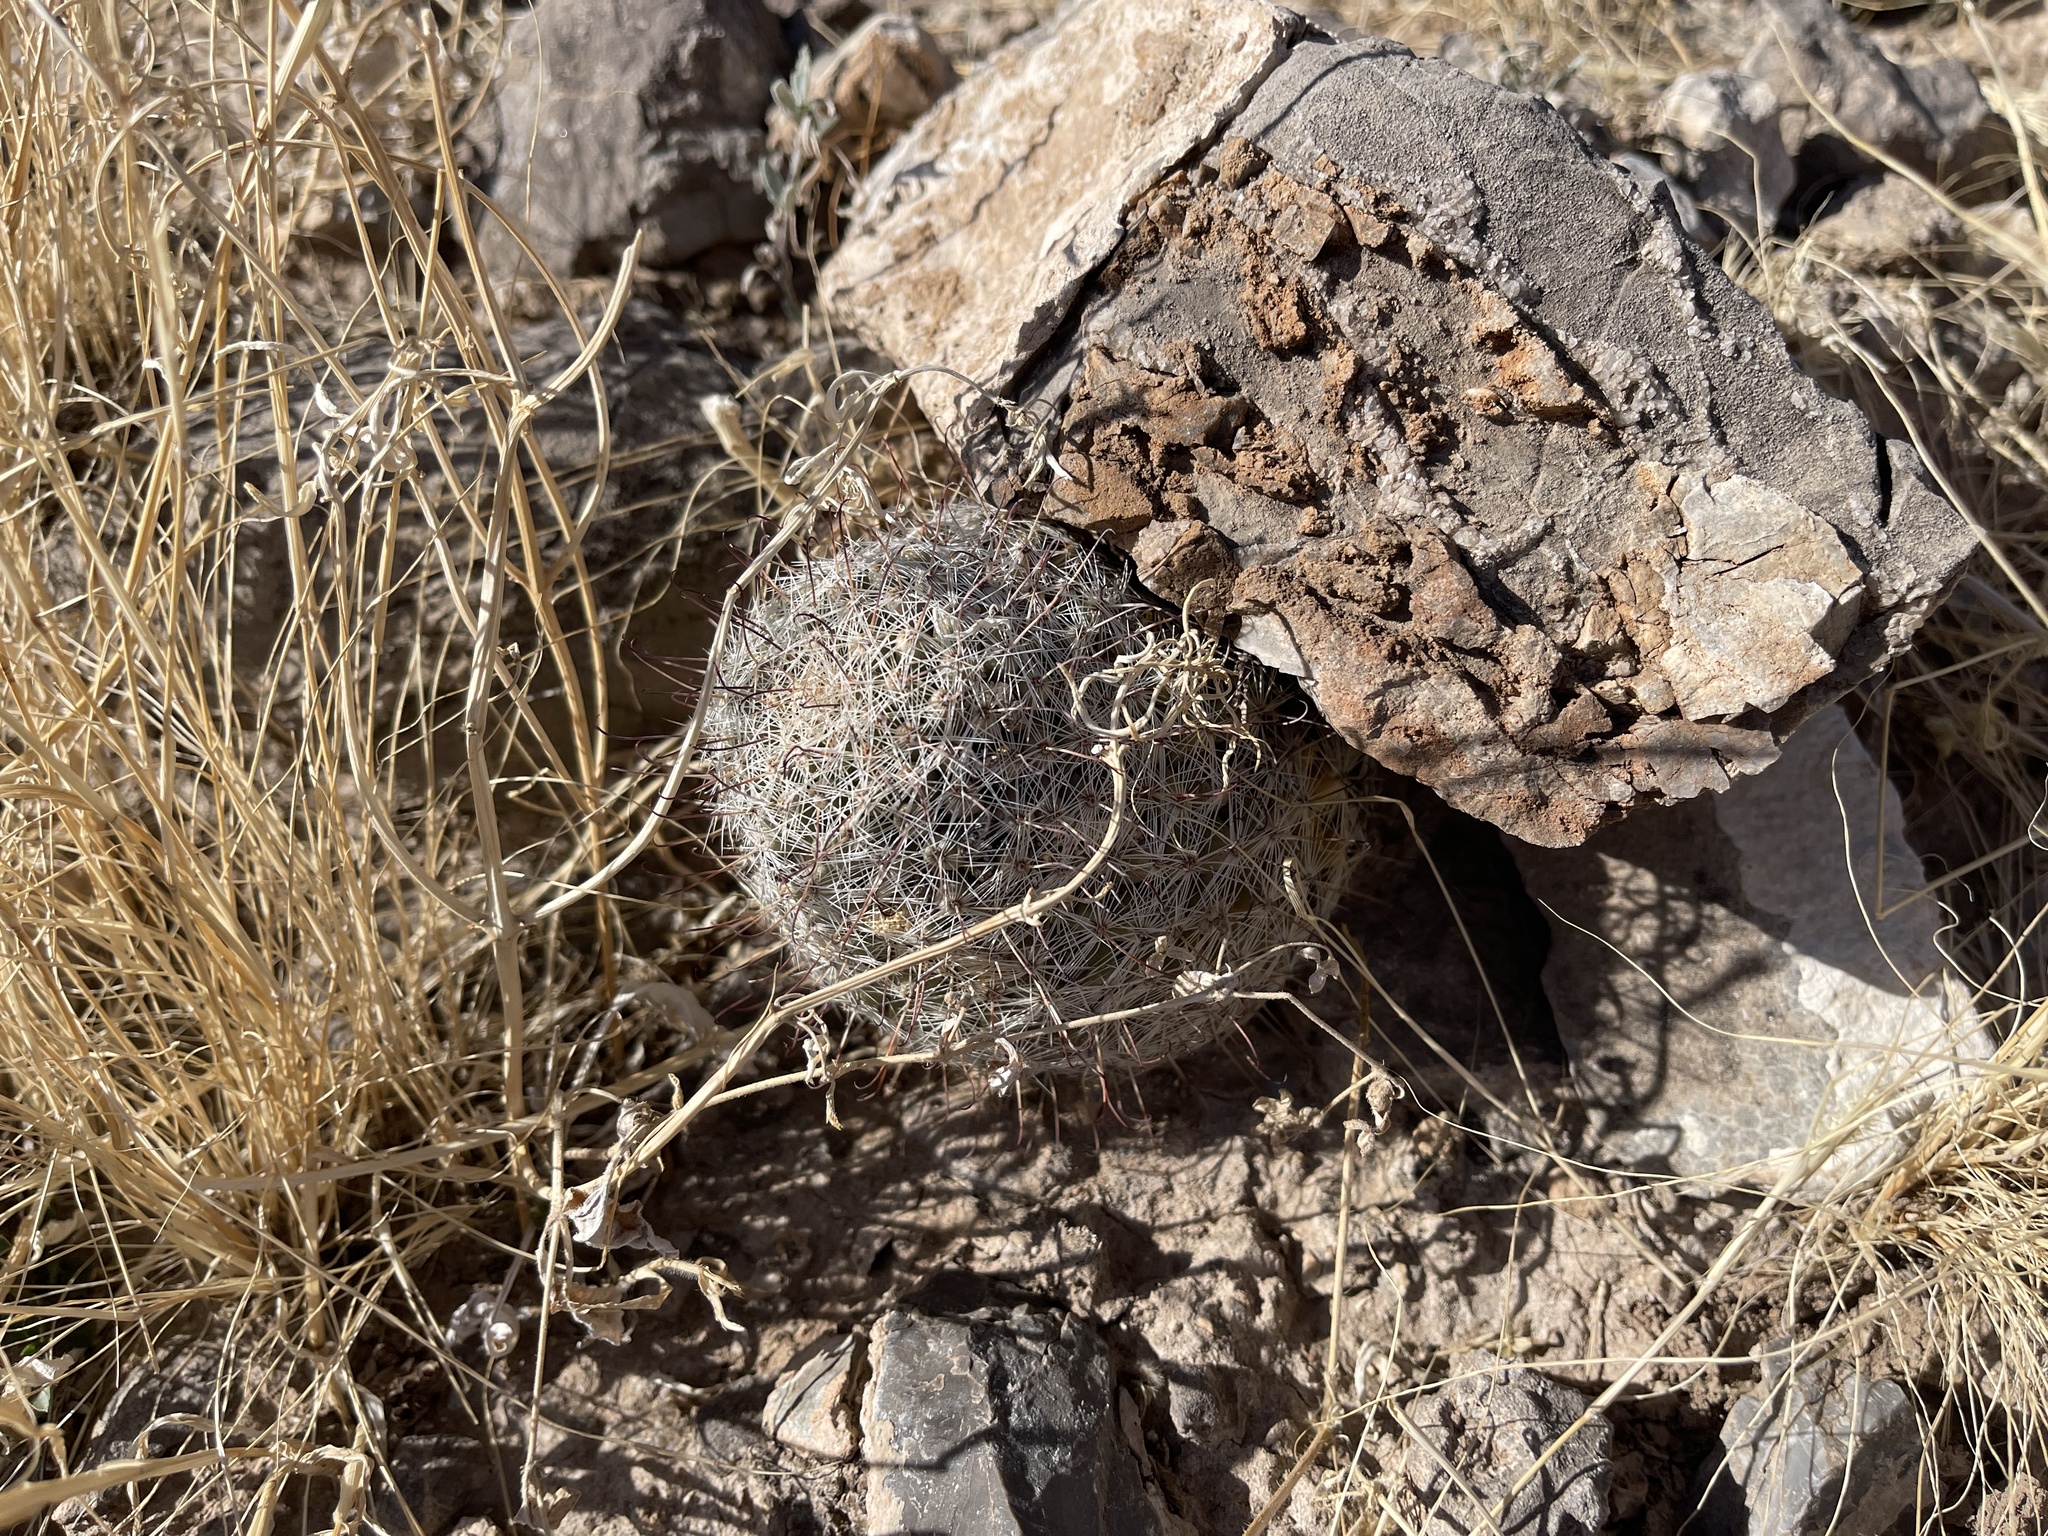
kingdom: Plantae
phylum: Tracheophyta
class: Magnoliopsida
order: Caryophyllales
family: Cactaceae
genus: Cochemiea
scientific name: Cochemiea grahamii
